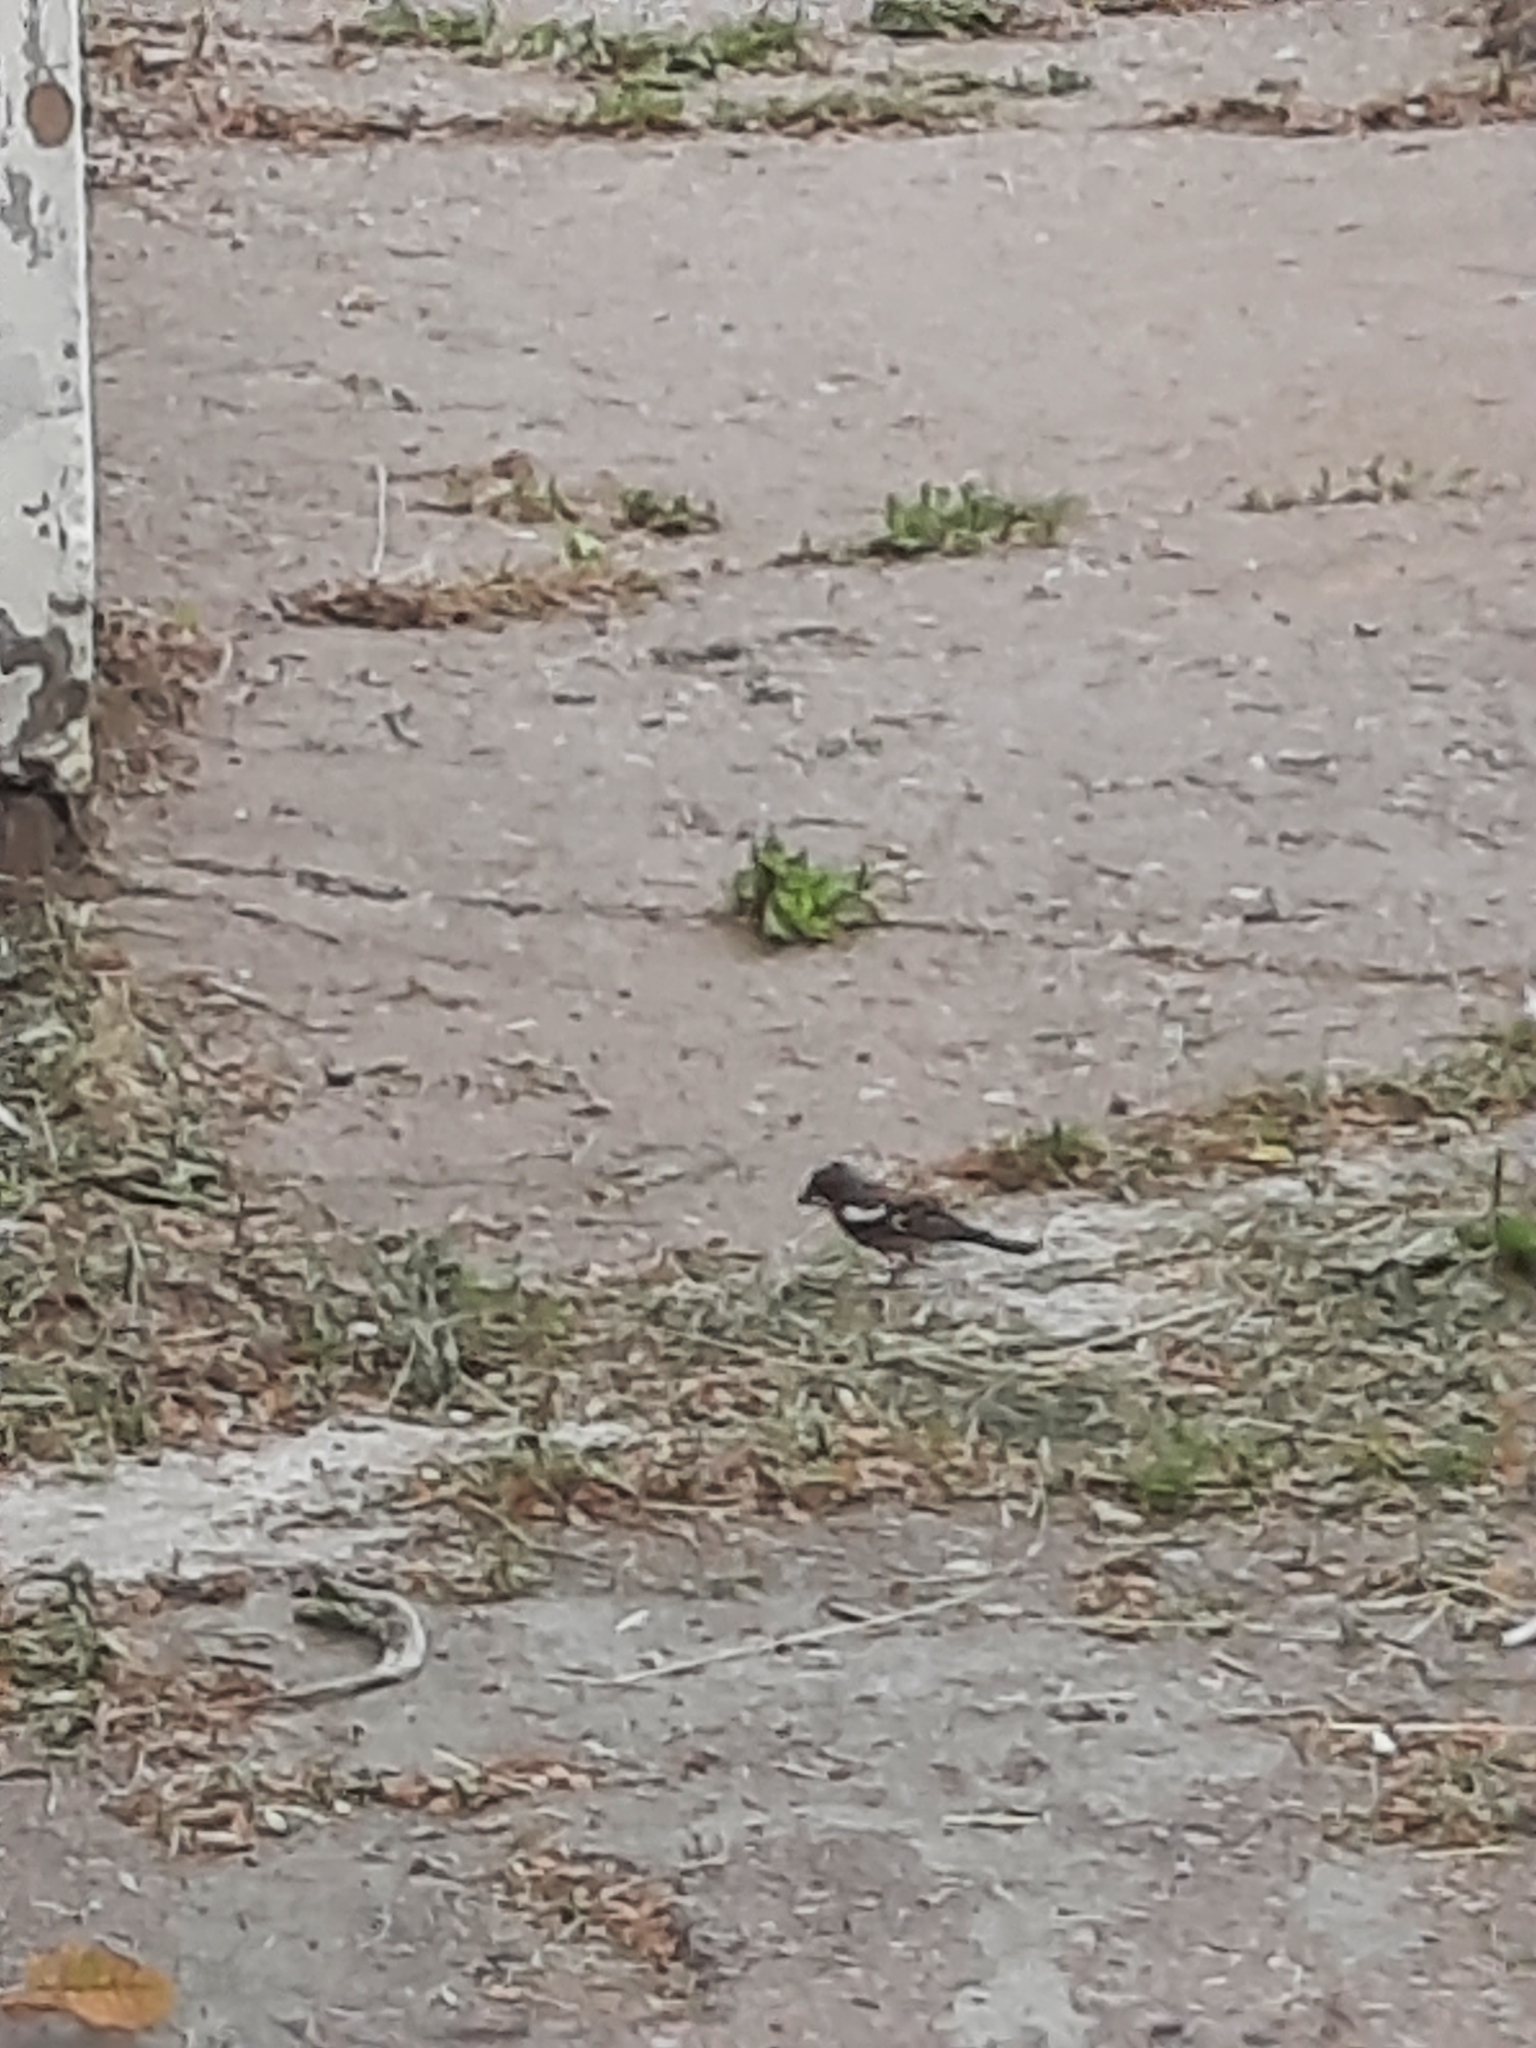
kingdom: Animalia
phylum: Chordata
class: Aves
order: Passeriformes
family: Fringillidae
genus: Fringilla
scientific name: Fringilla coelebs
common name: Common chaffinch
